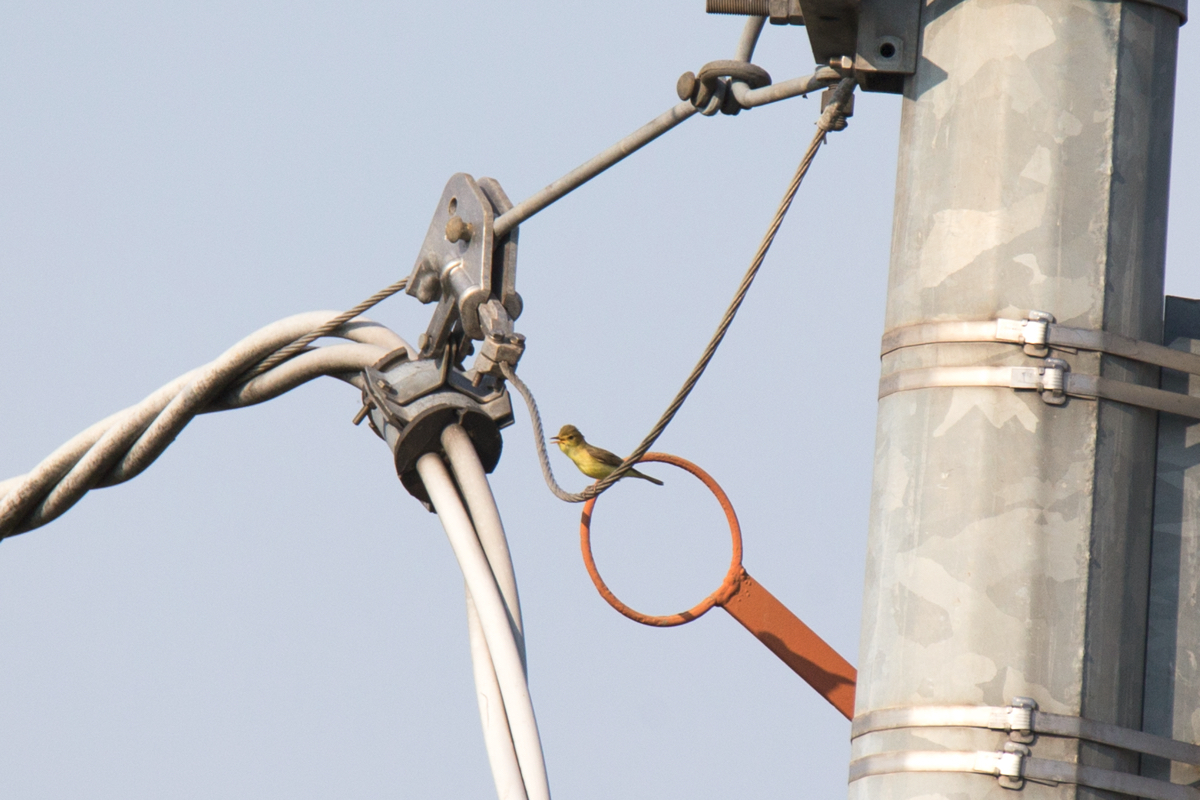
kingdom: Animalia
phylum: Chordata
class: Aves
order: Passeriformes
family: Acrocephalidae
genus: Hippolais
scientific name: Hippolais polyglotta
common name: Melodious warbler
